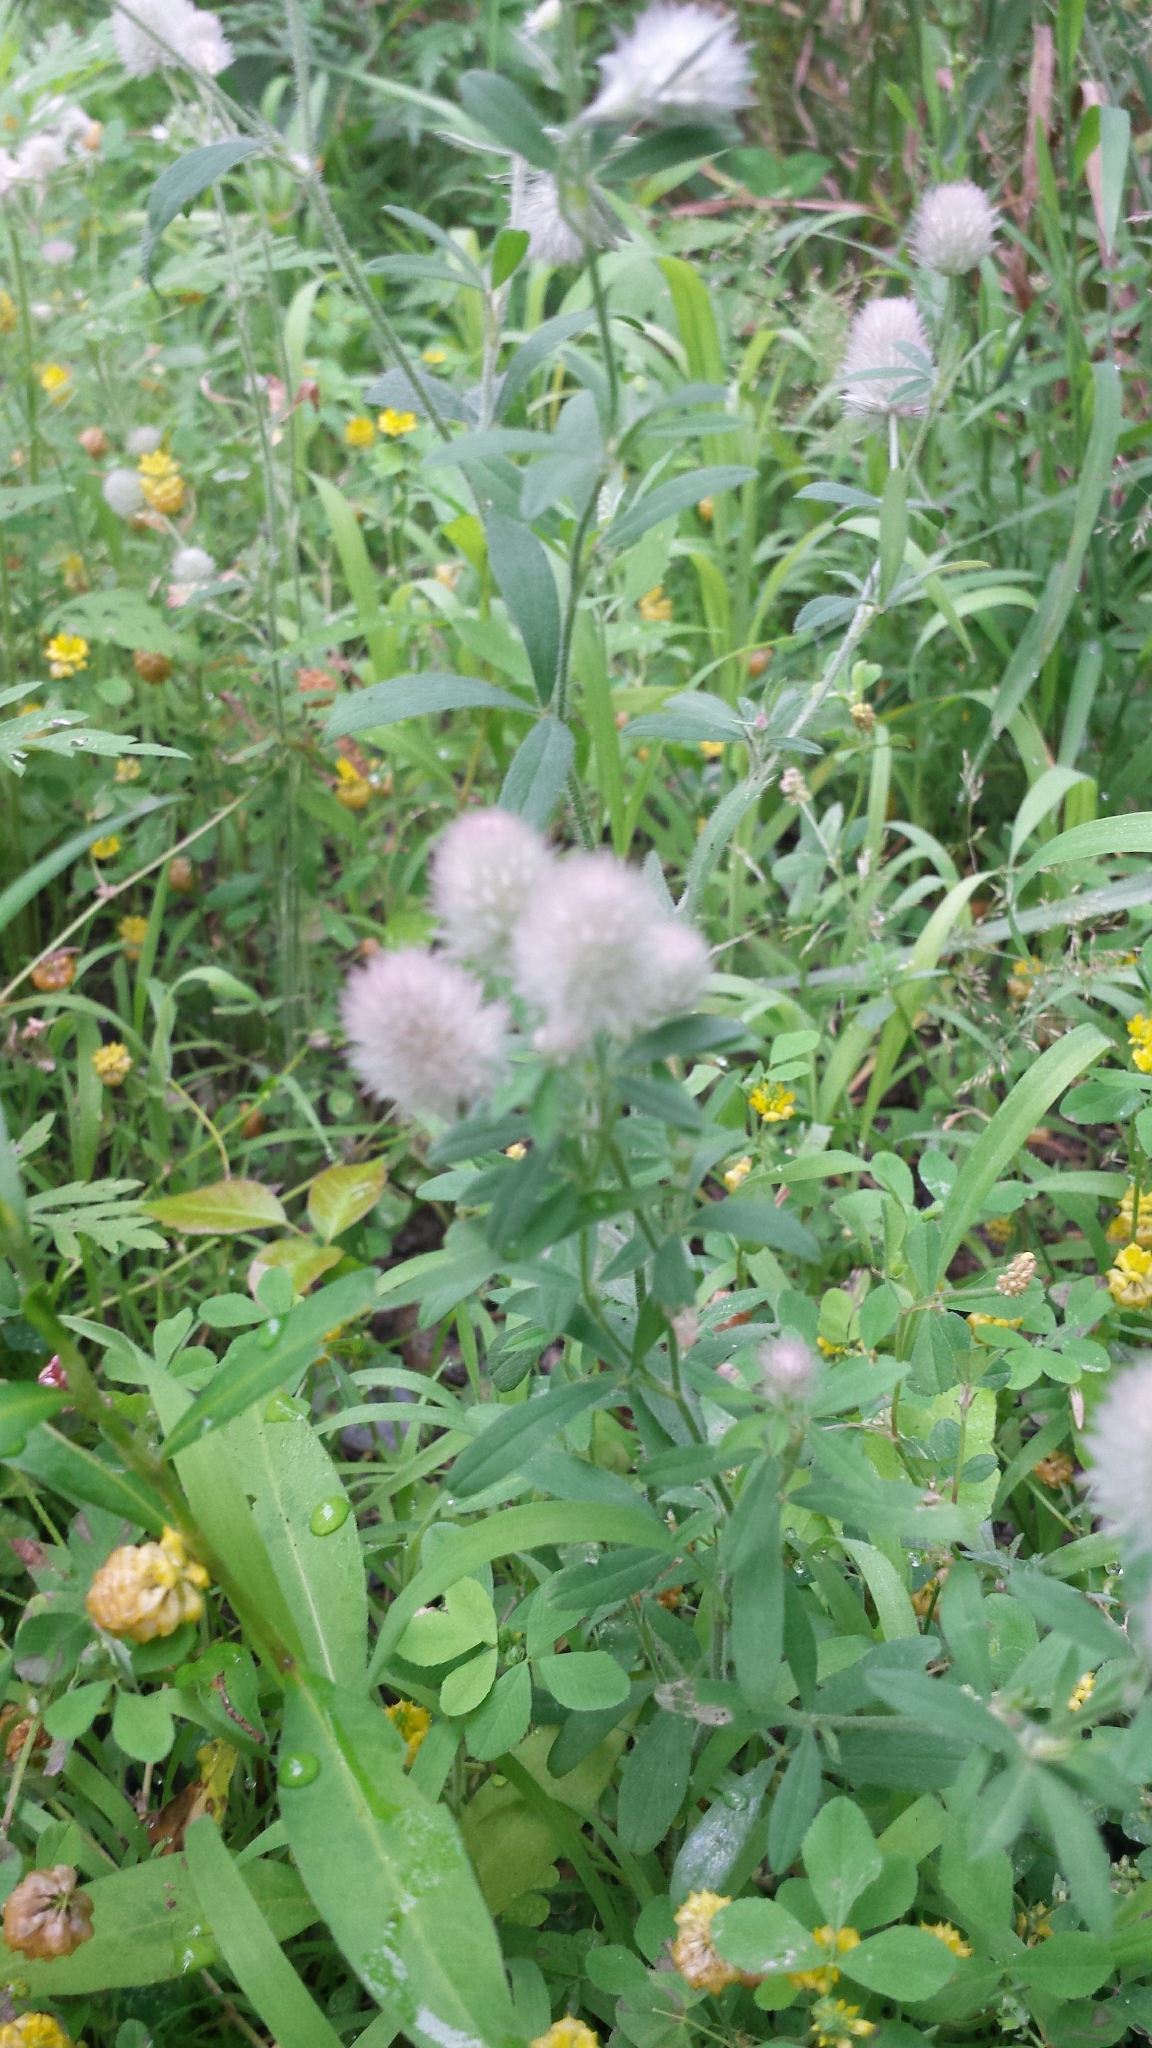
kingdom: Plantae
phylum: Tracheophyta
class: Magnoliopsida
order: Fabales
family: Fabaceae
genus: Trifolium
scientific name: Trifolium arvense
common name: Hare's-foot clover
